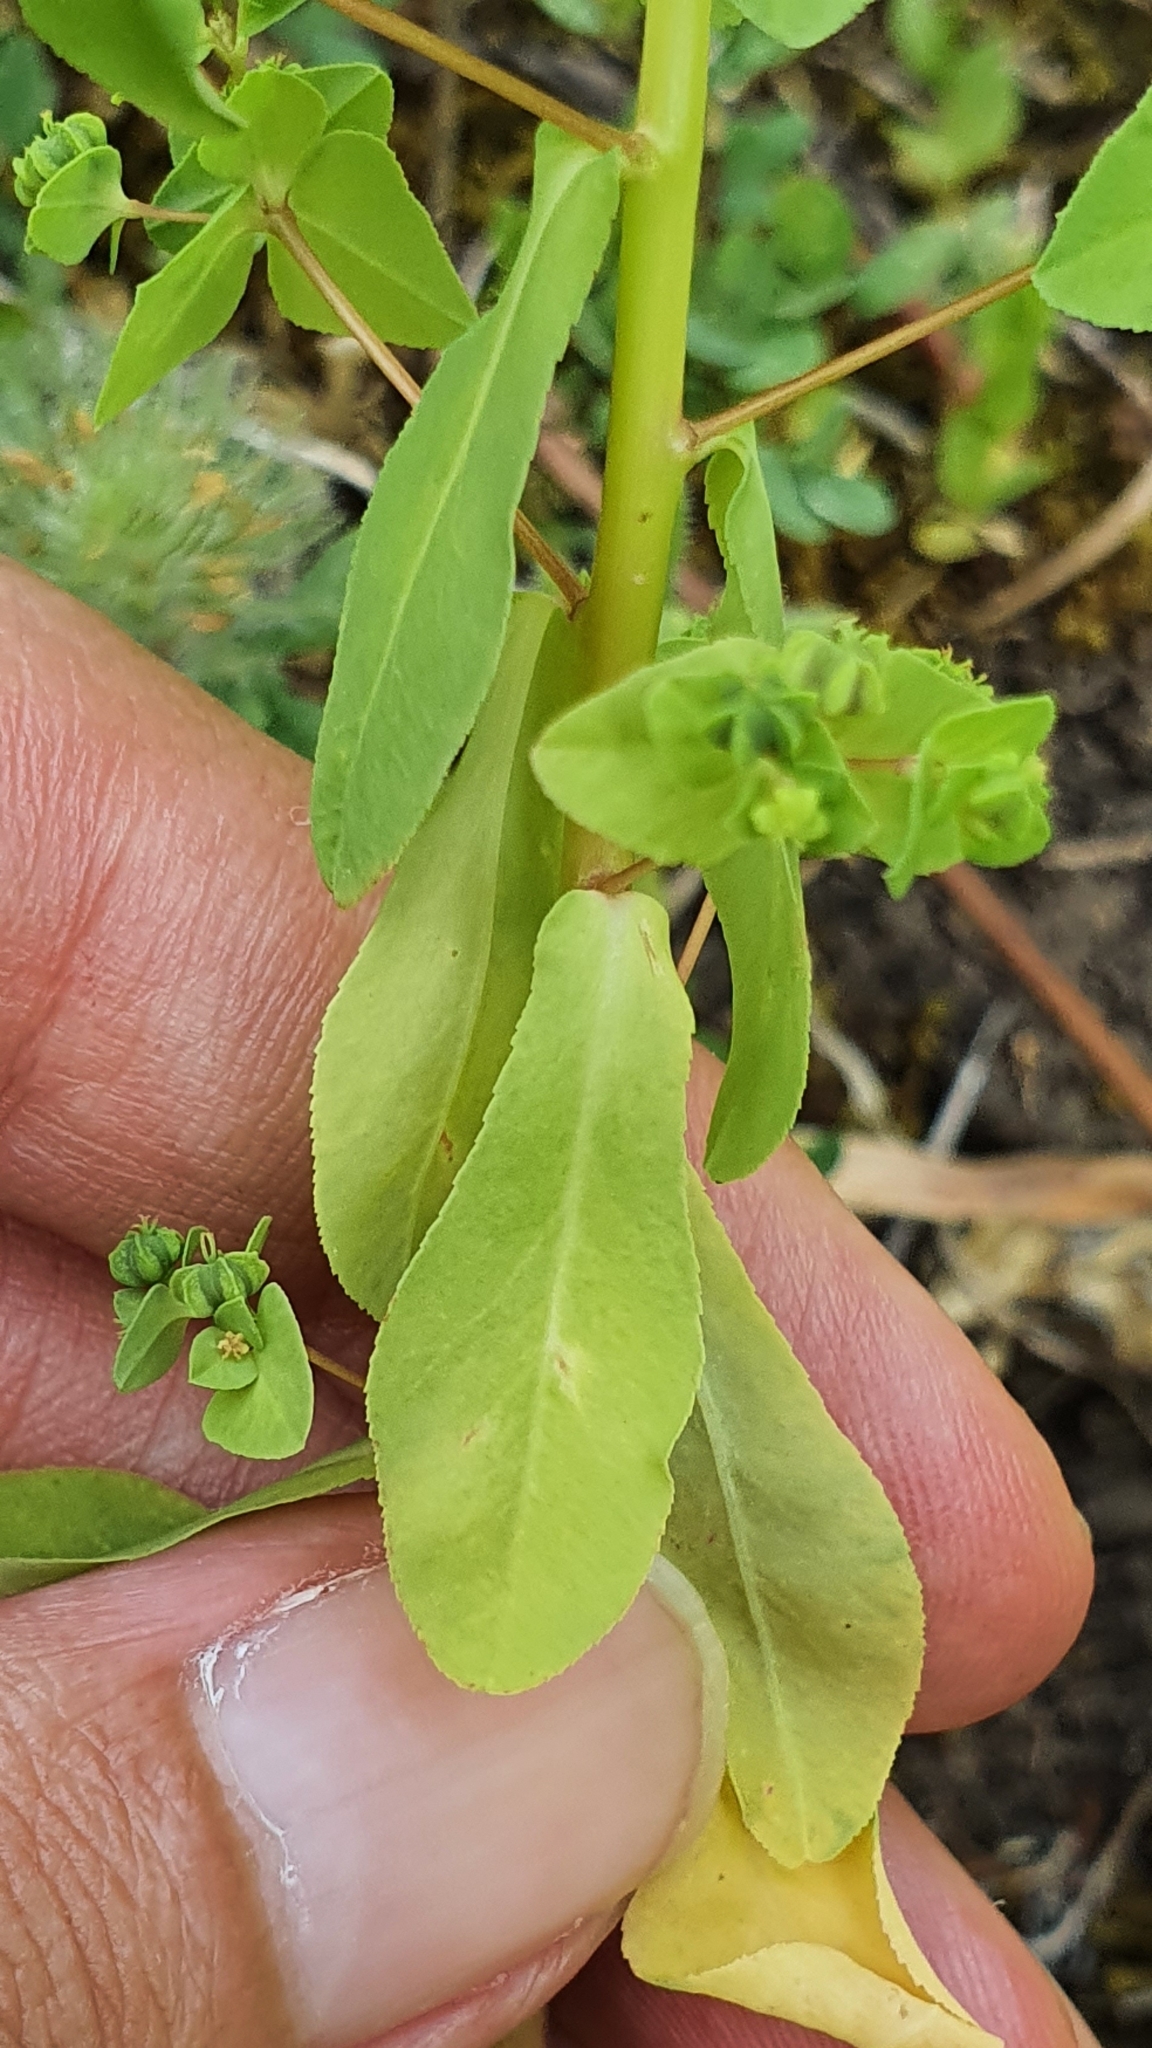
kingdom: Plantae
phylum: Tracheophyta
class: Magnoliopsida
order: Malpighiales
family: Euphorbiaceae
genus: Euphorbia
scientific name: Euphorbia pterococca
